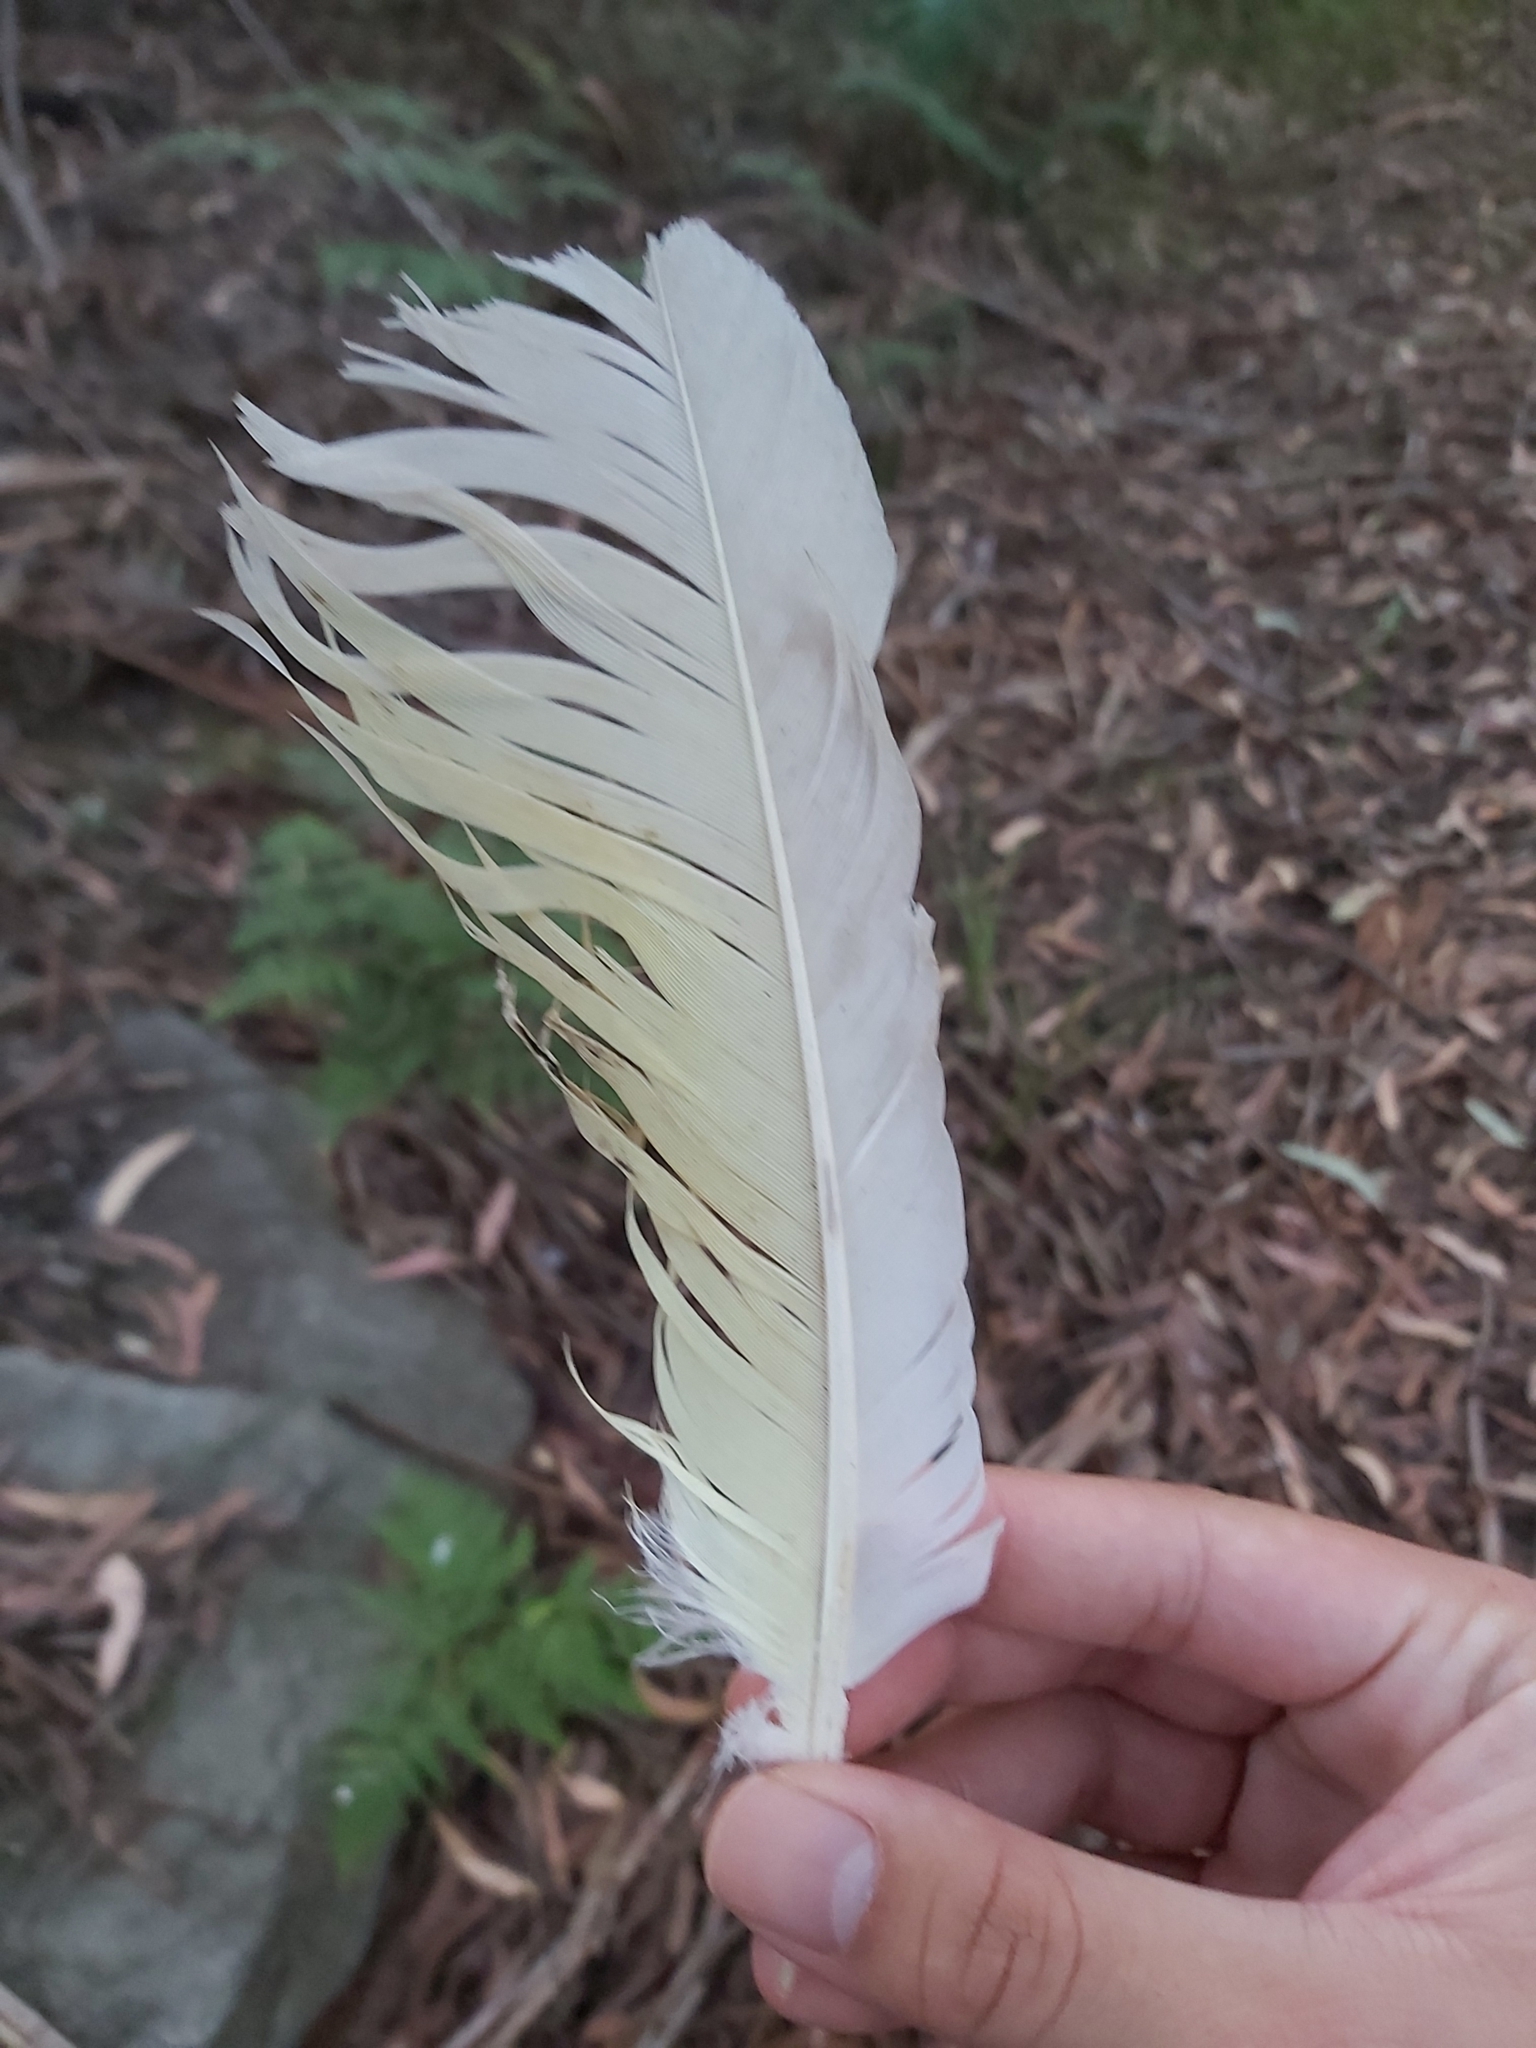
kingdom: Animalia
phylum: Chordata
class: Aves
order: Psittaciformes
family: Psittacidae
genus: Cacatua
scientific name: Cacatua galerita
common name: Sulphur-crested cockatoo
